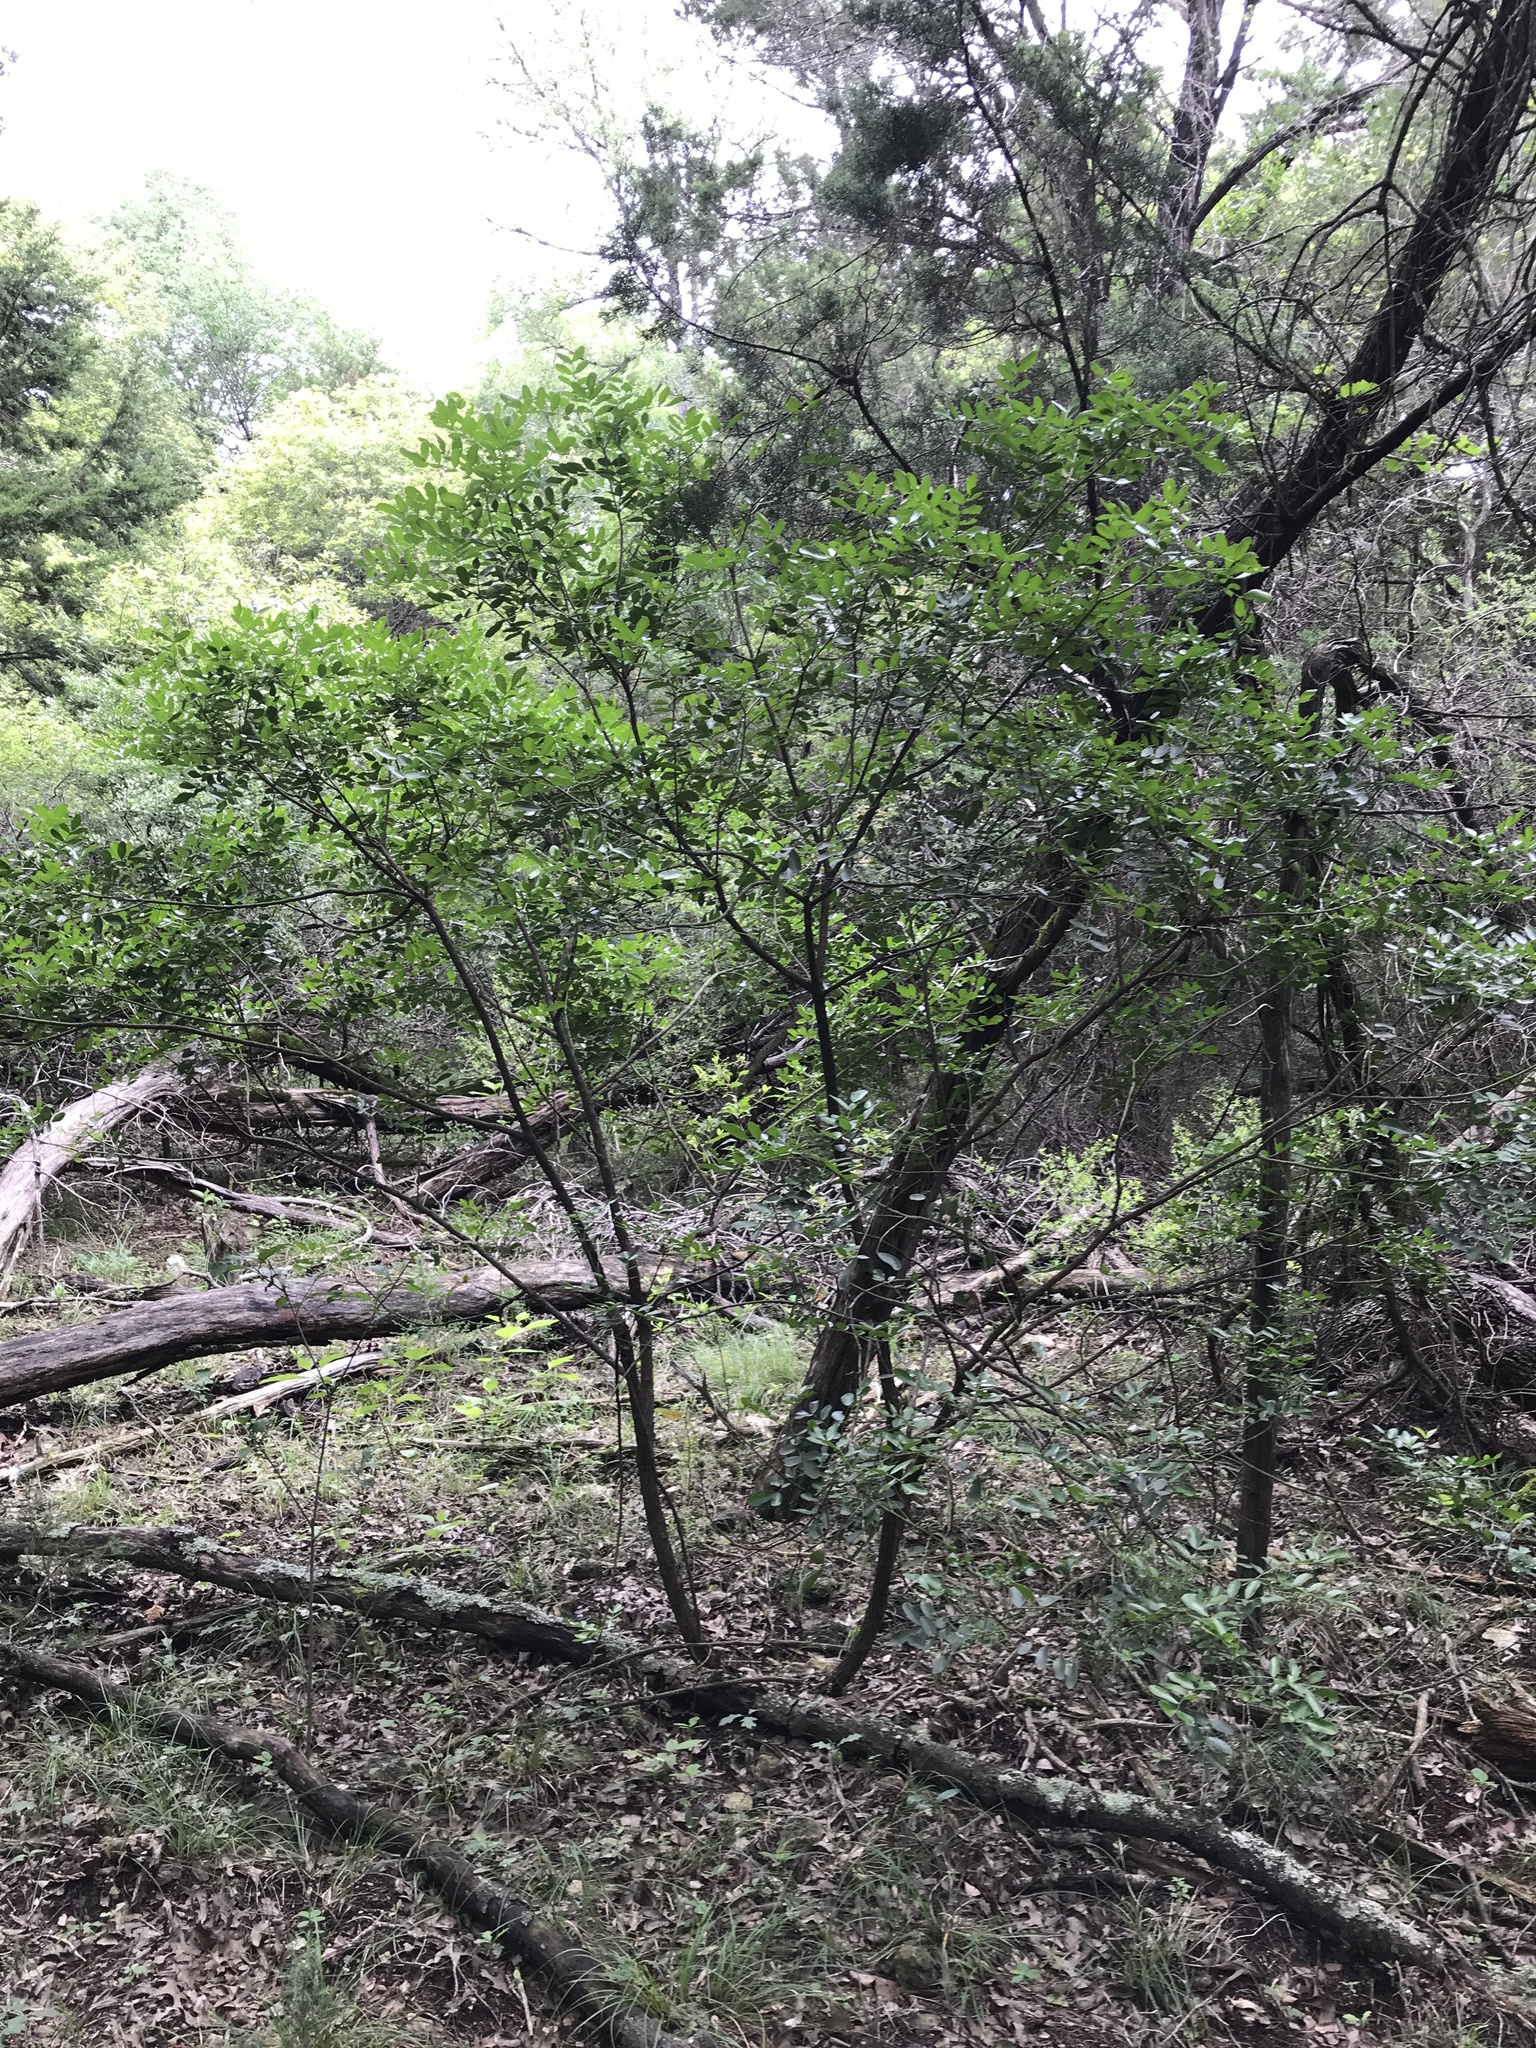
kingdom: Plantae
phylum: Tracheophyta
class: Magnoliopsida
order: Fabales
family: Fabaceae
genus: Dermatophyllum
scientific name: Dermatophyllum secundiflorum
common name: Texas-mountain-laurel
